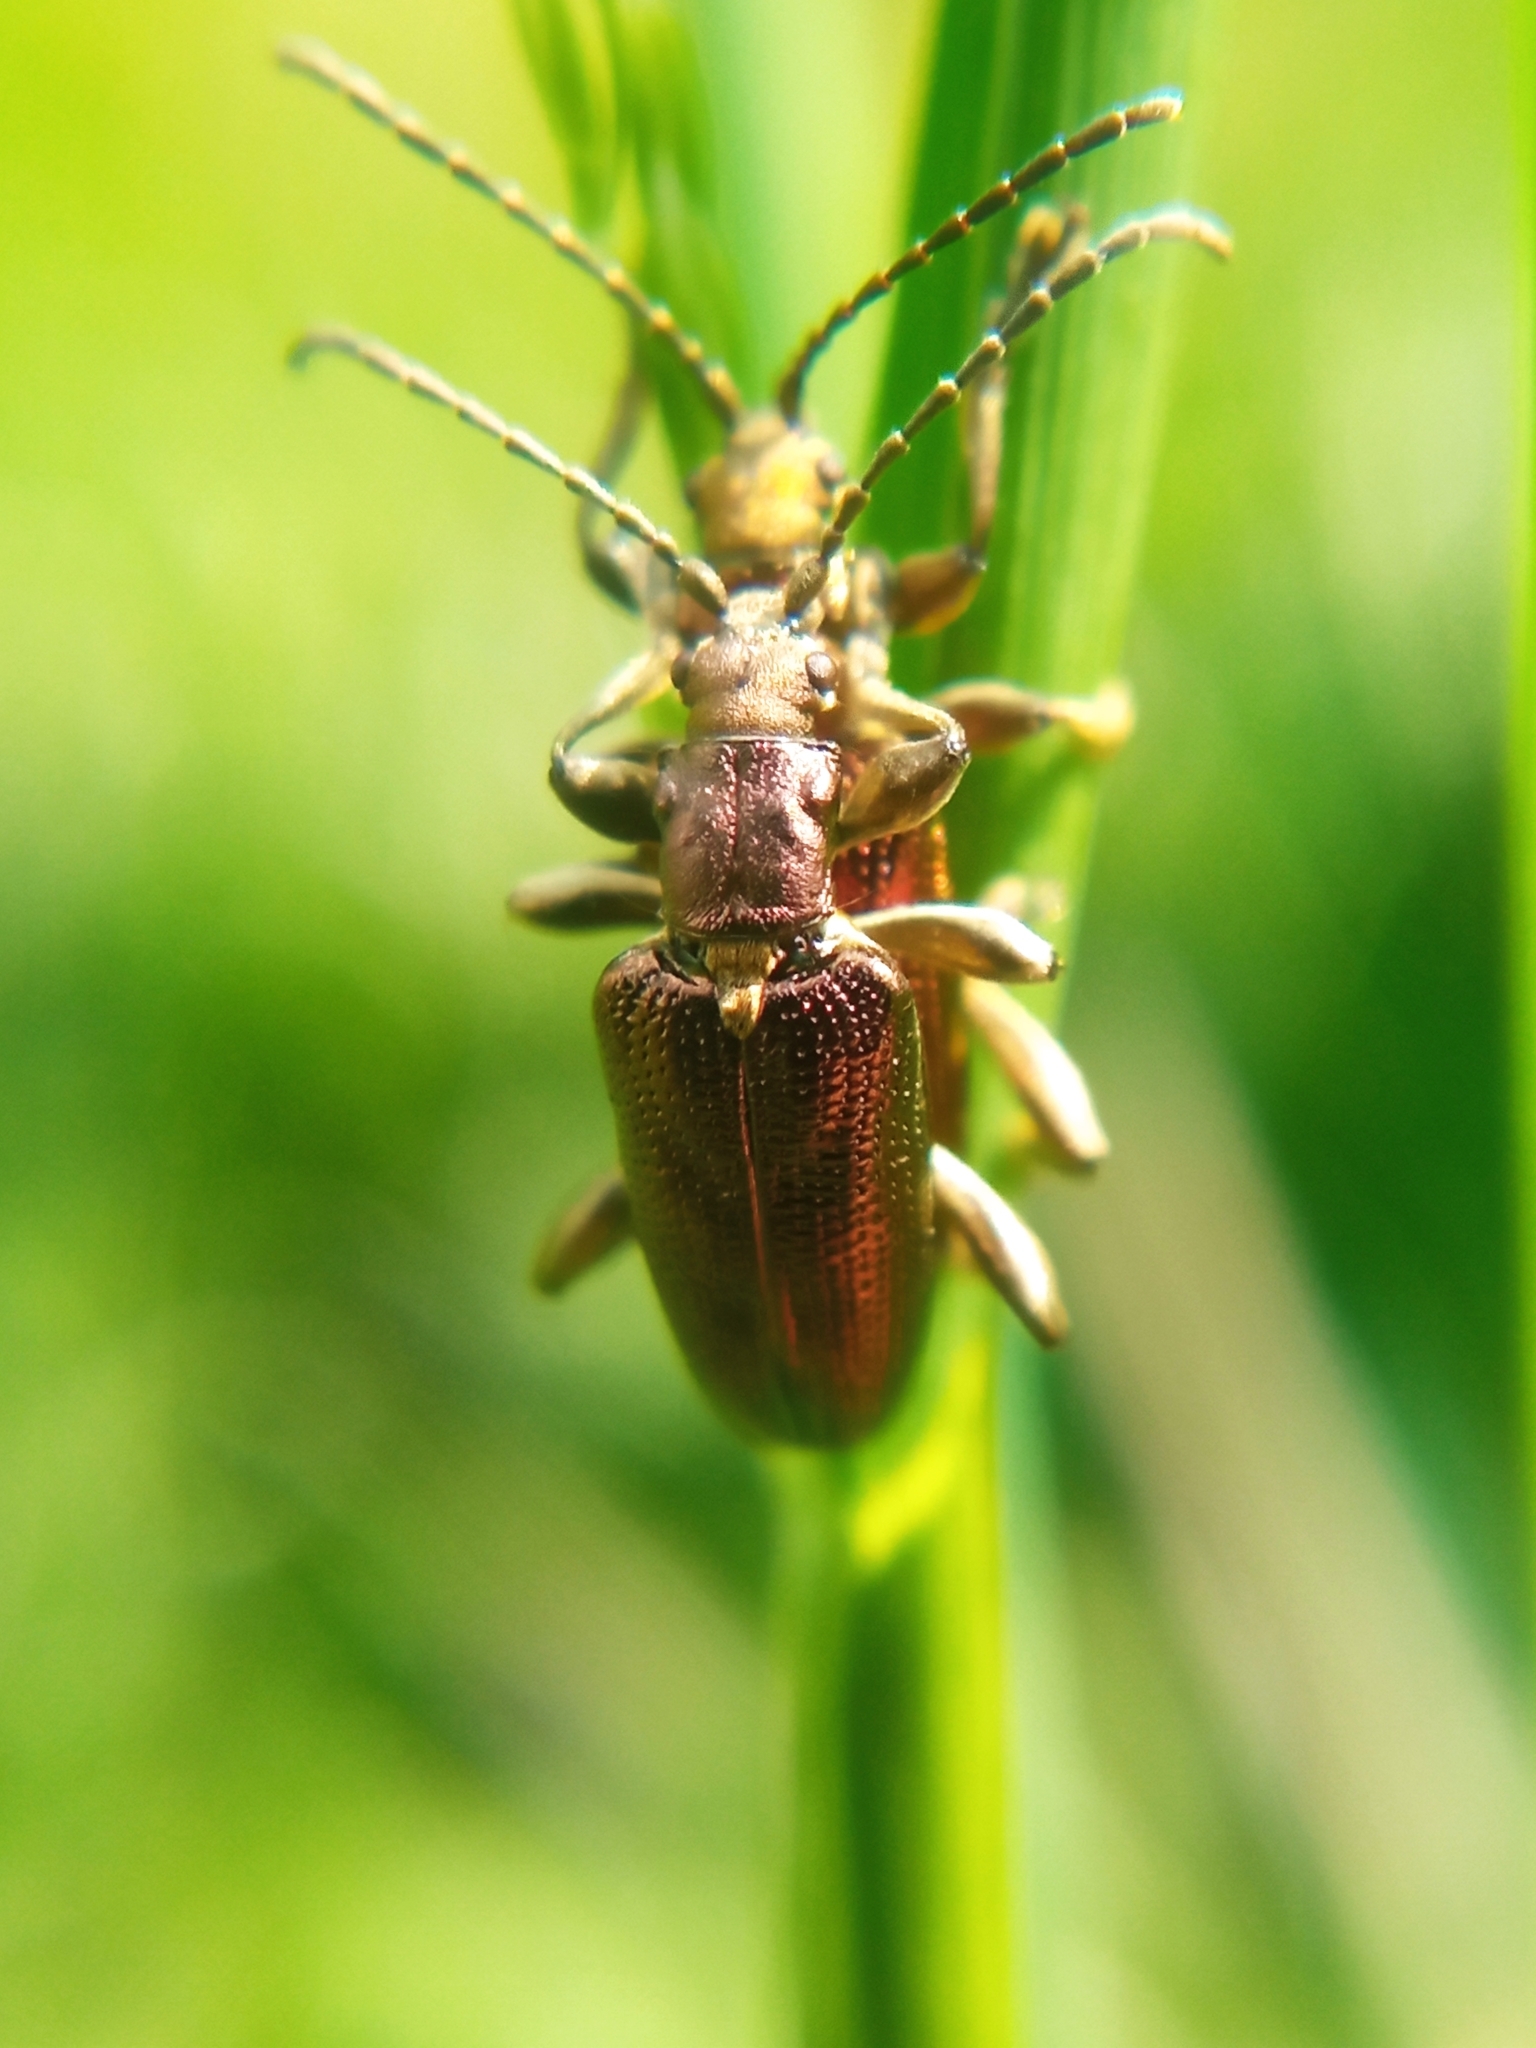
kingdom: Animalia
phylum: Arthropoda
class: Insecta
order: Coleoptera
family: Chrysomelidae
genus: Plateumaris
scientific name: Plateumaris sericea
